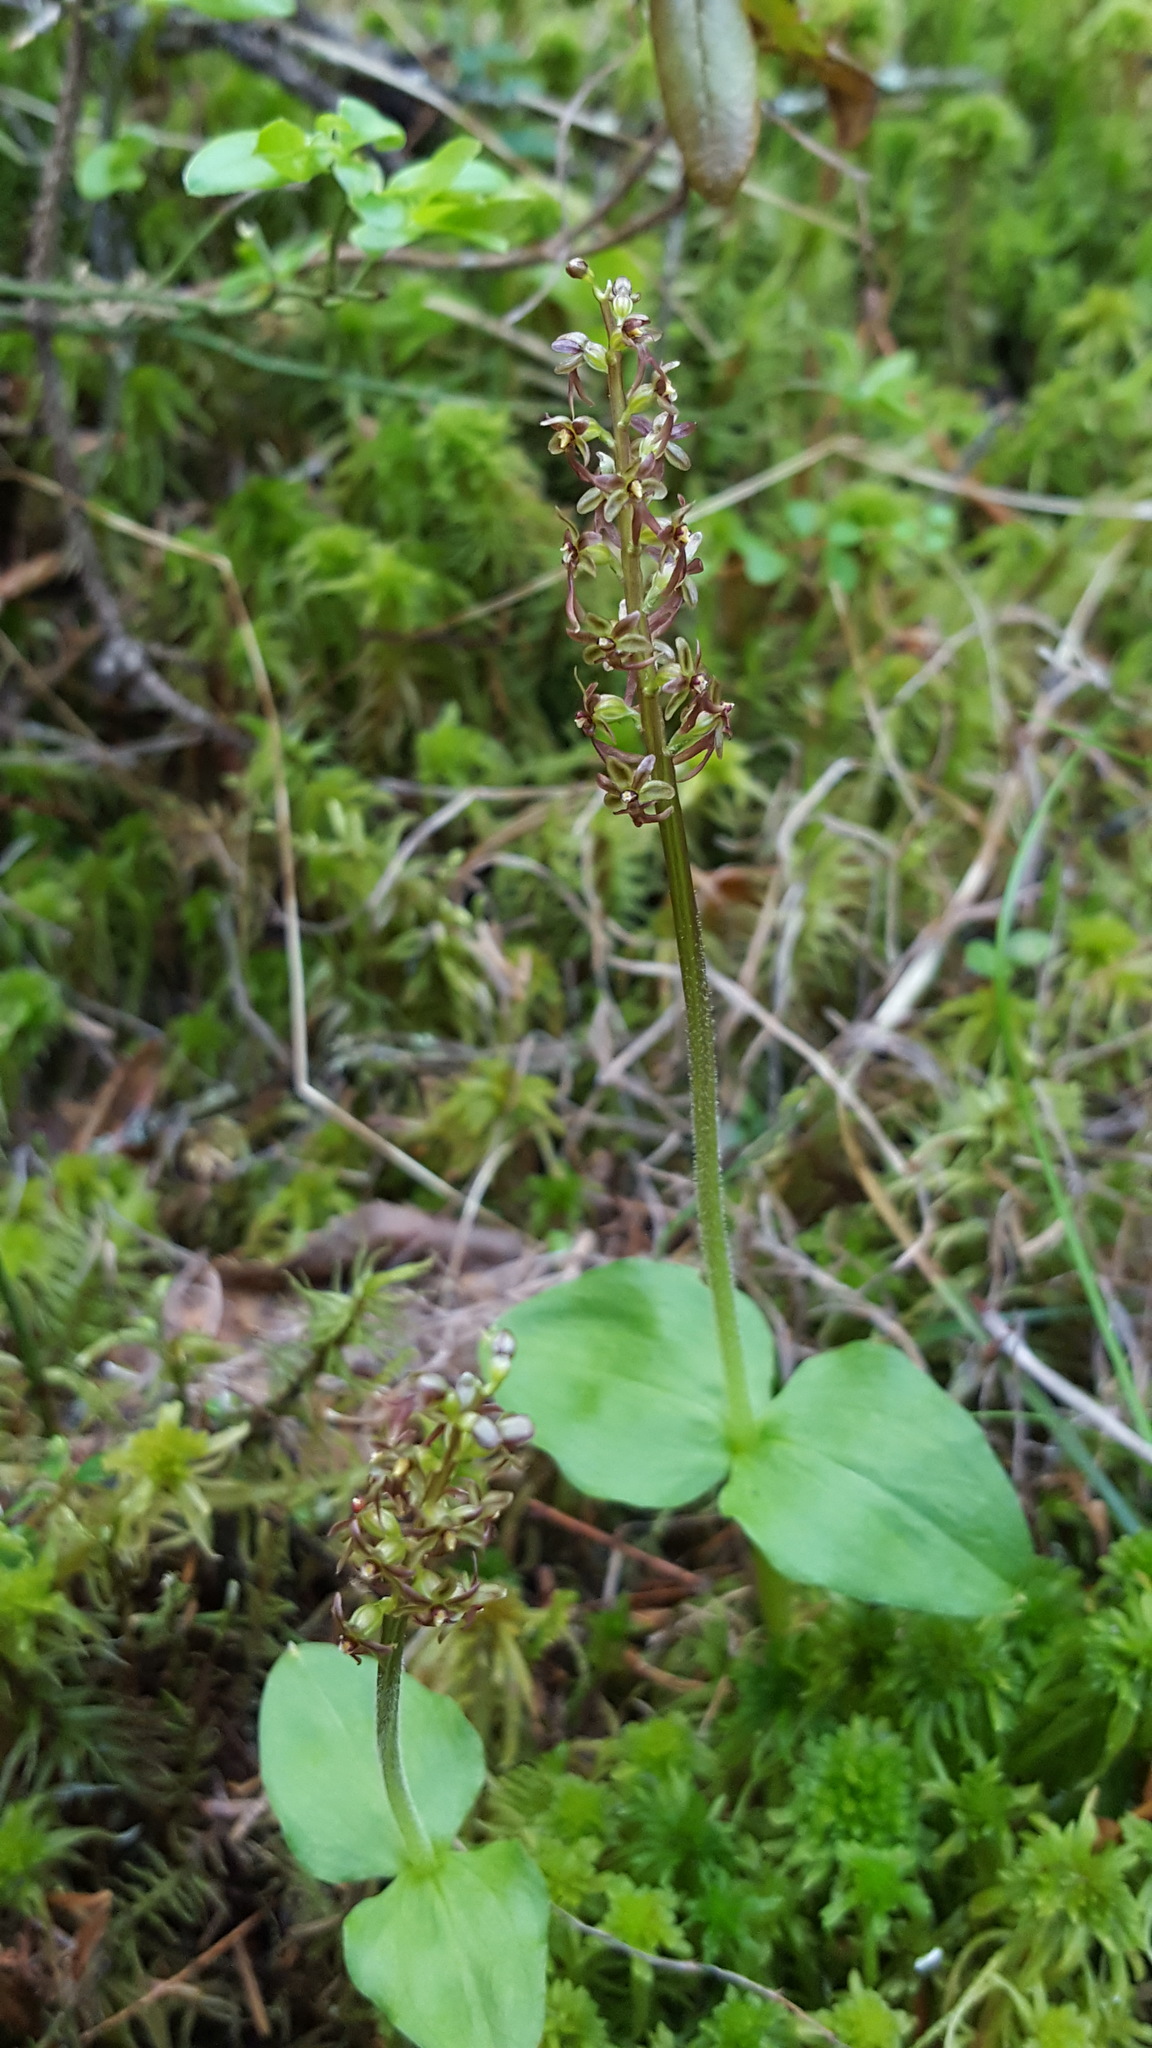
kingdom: Plantae
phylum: Tracheophyta
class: Liliopsida
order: Asparagales
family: Orchidaceae
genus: Neottia
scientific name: Neottia cordata
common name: Lesser twayblade
